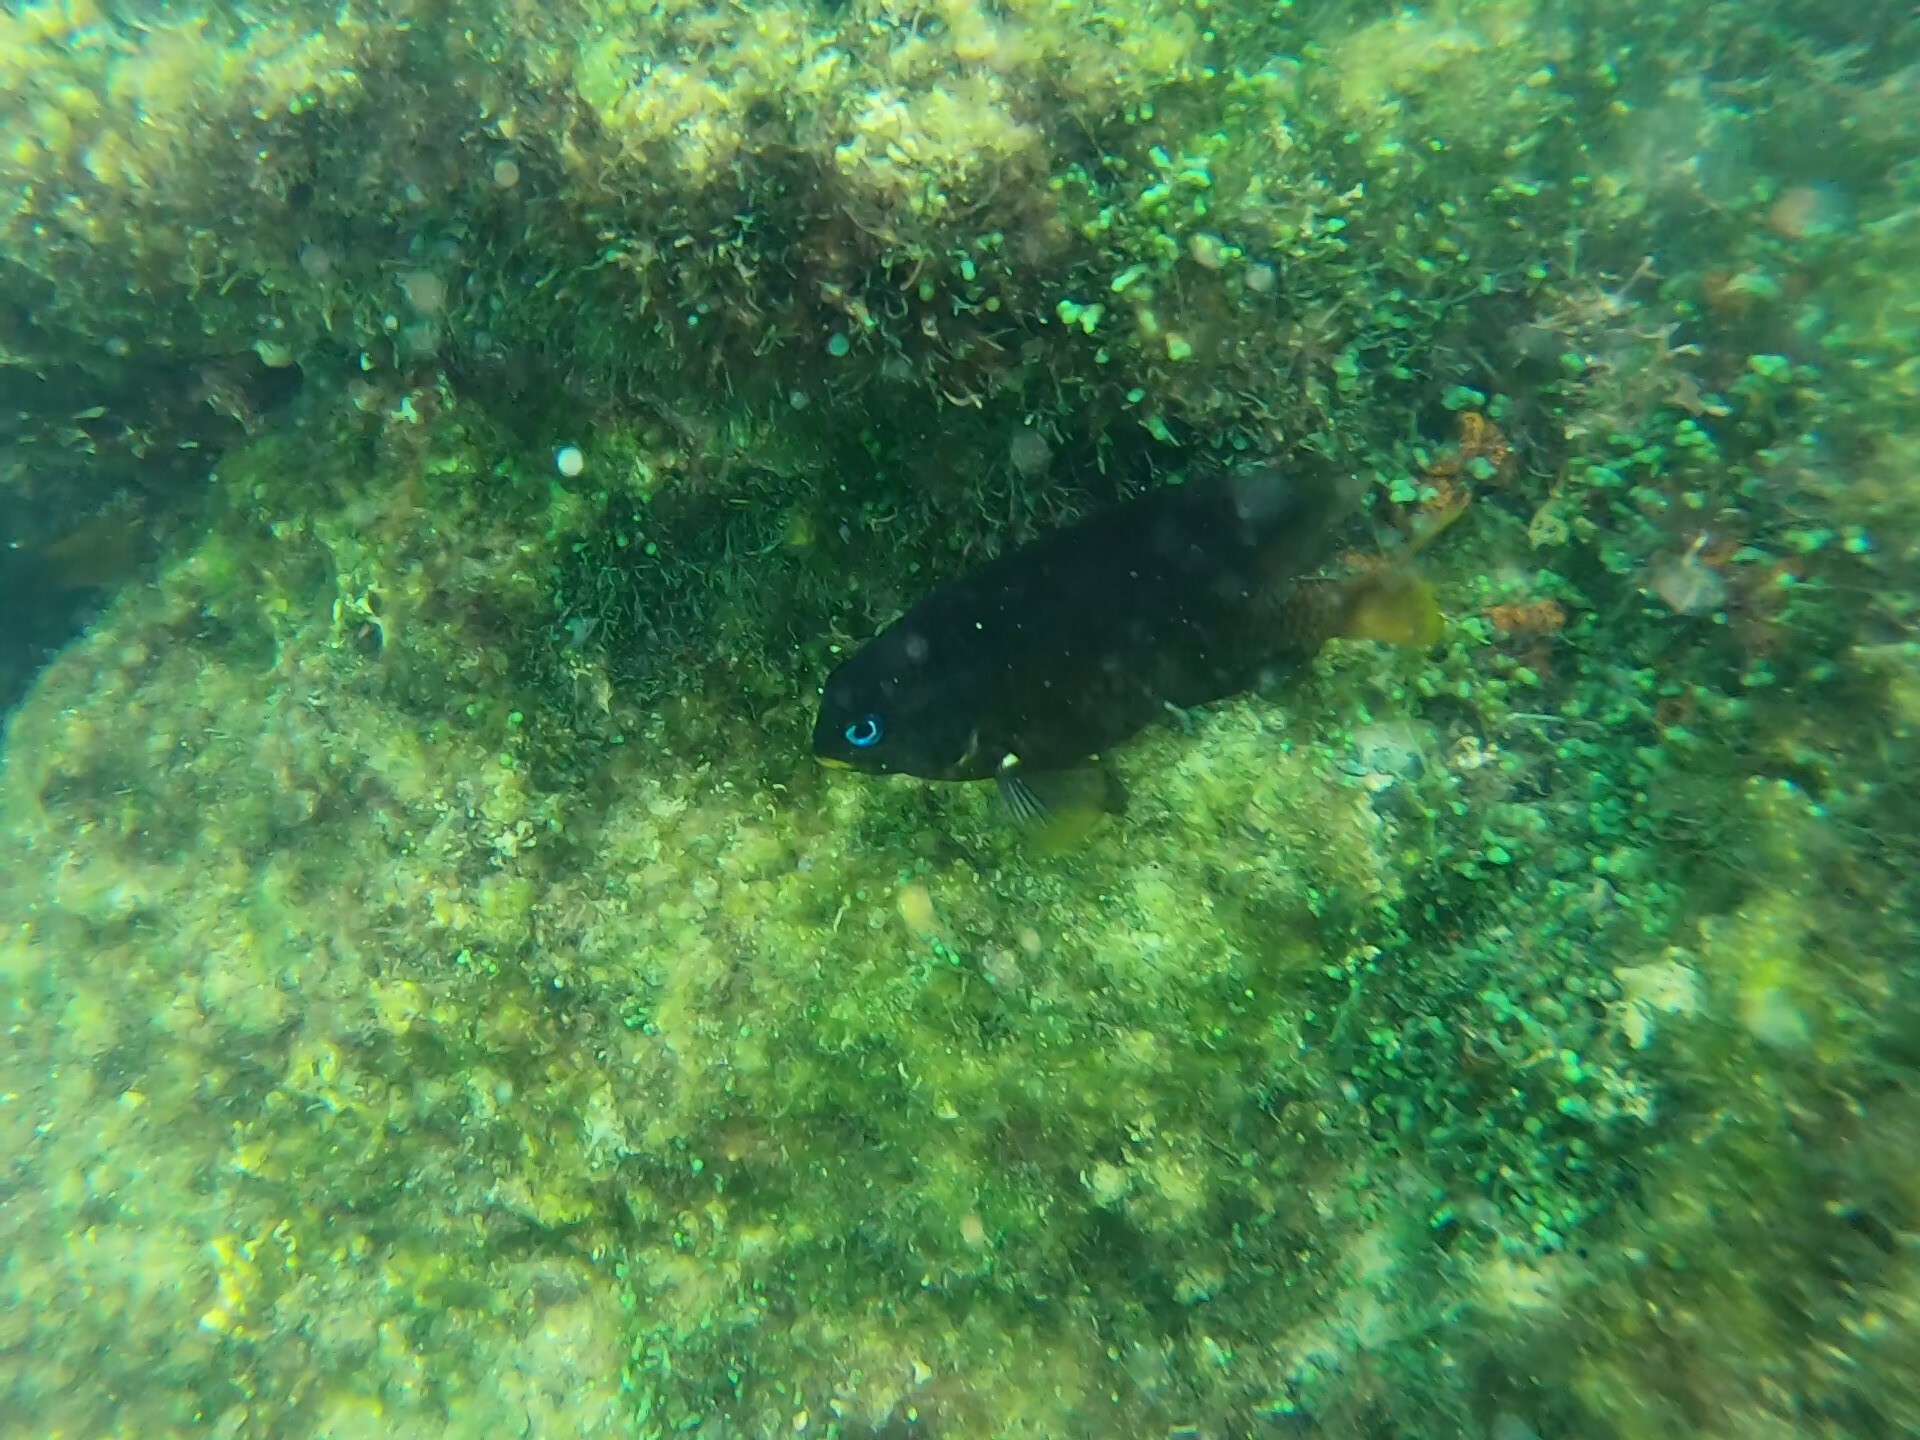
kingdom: Animalia
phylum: Chordata
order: Perciformes
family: Pomacentridae
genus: Stegastes
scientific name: Stegastes arcifrons
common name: Galapagos gregory
